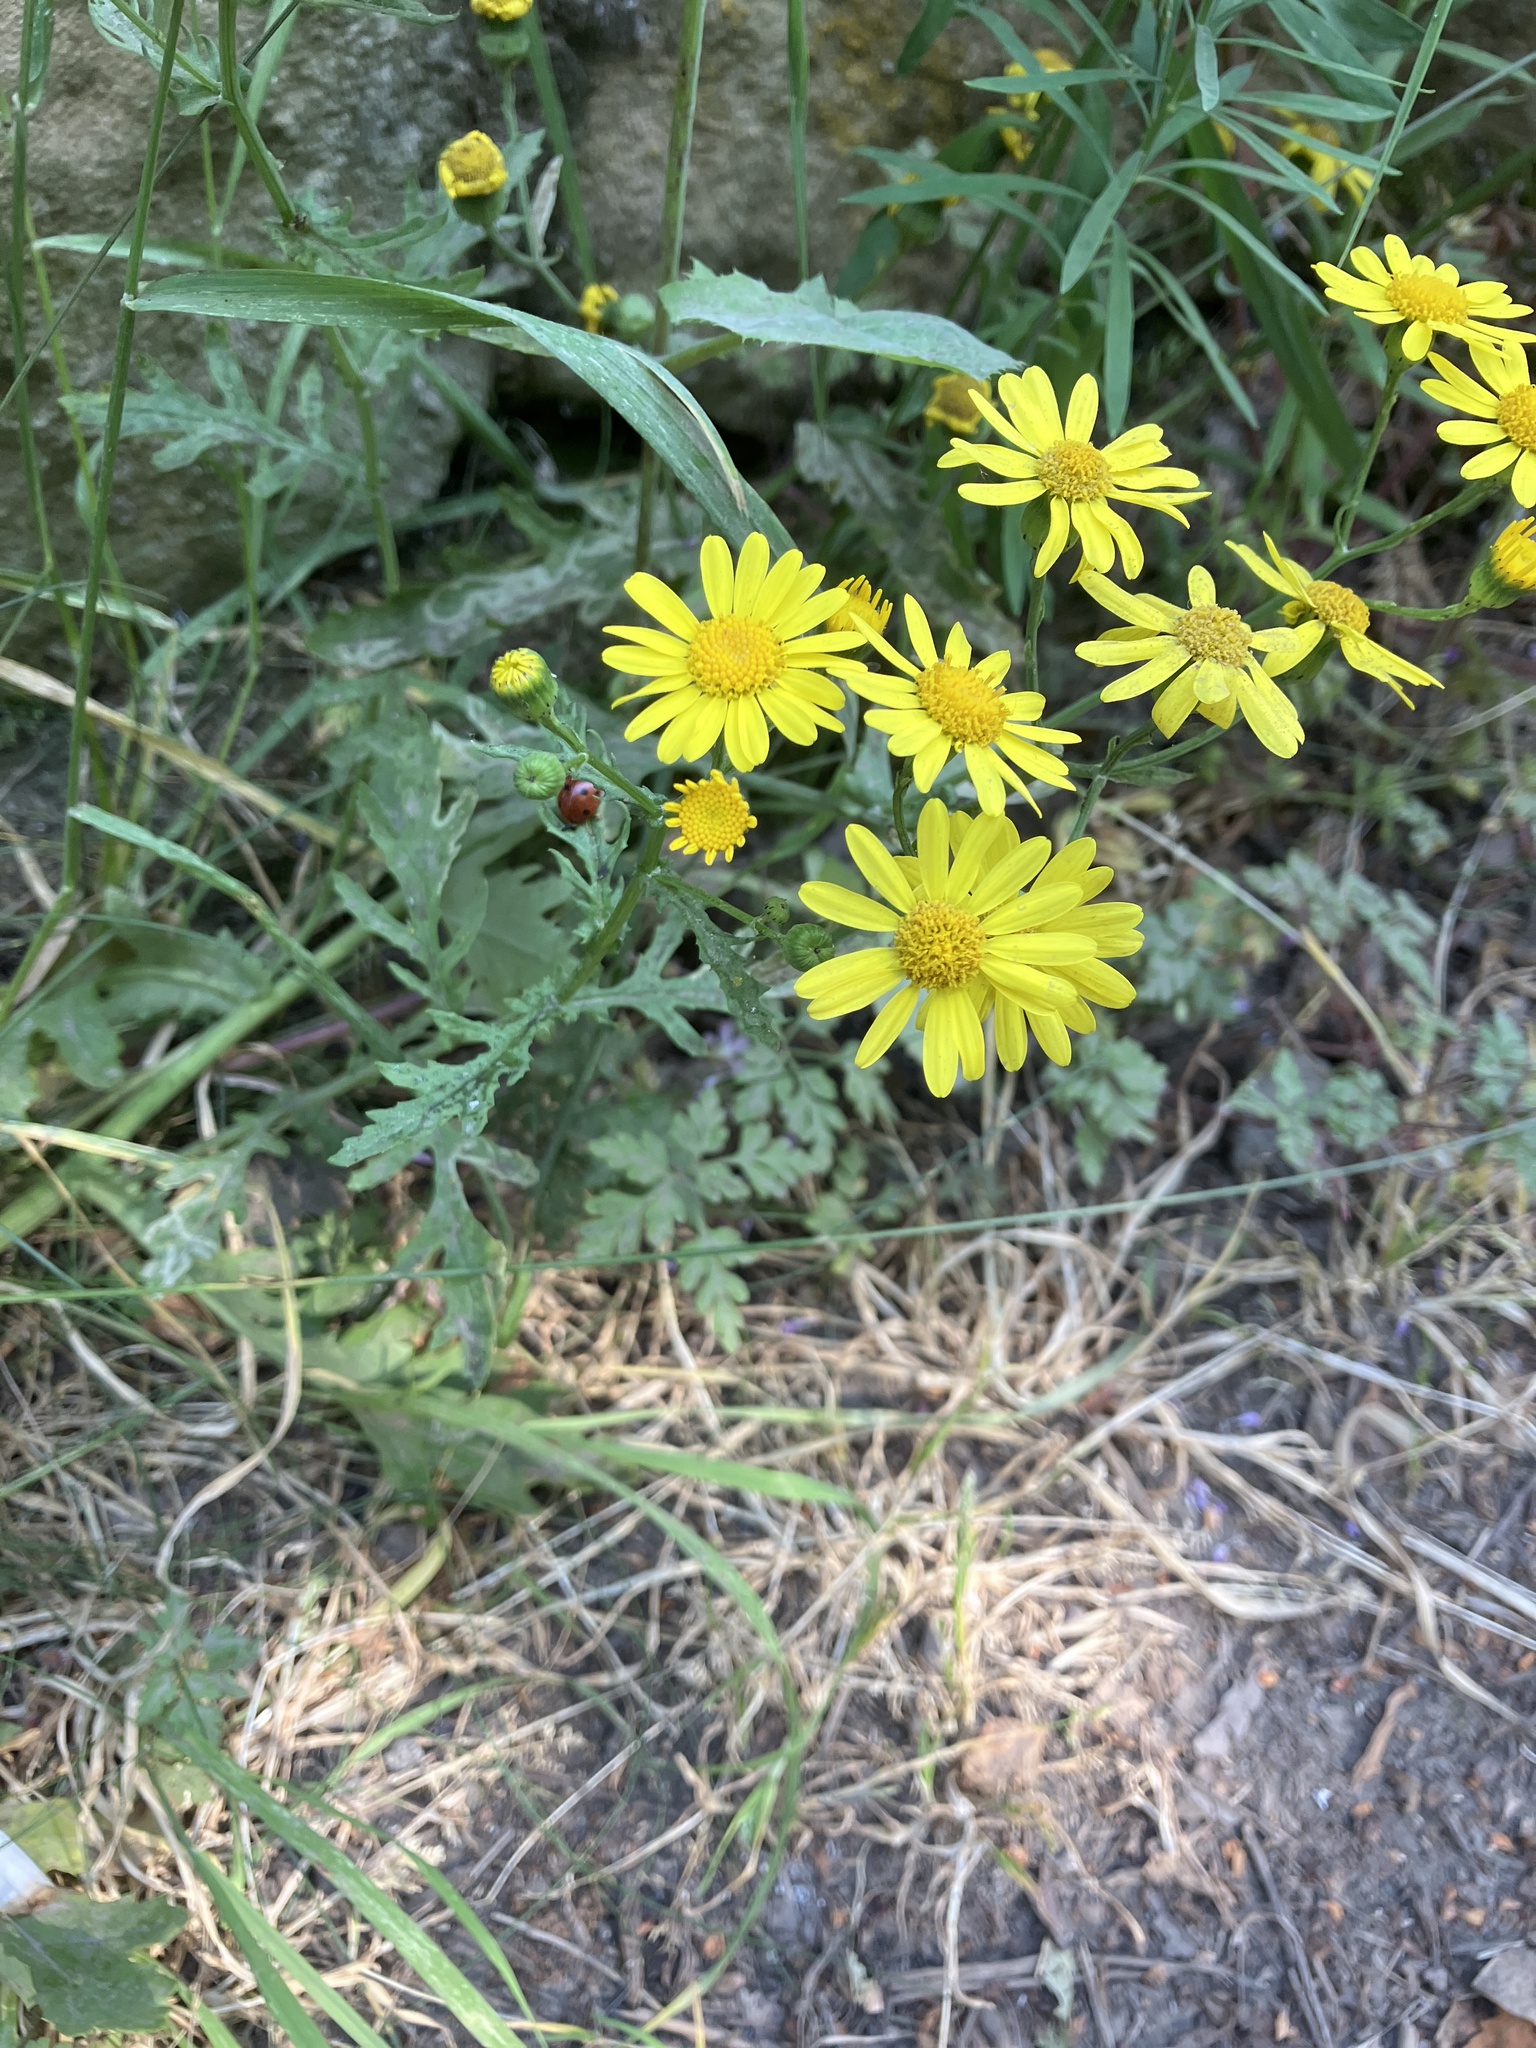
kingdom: Plantae
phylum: Tracheophyta
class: Magnoliopsida
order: Asterales
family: Asteraceae
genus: Senecio
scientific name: Senecio squalidus
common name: Oxford ragwort
